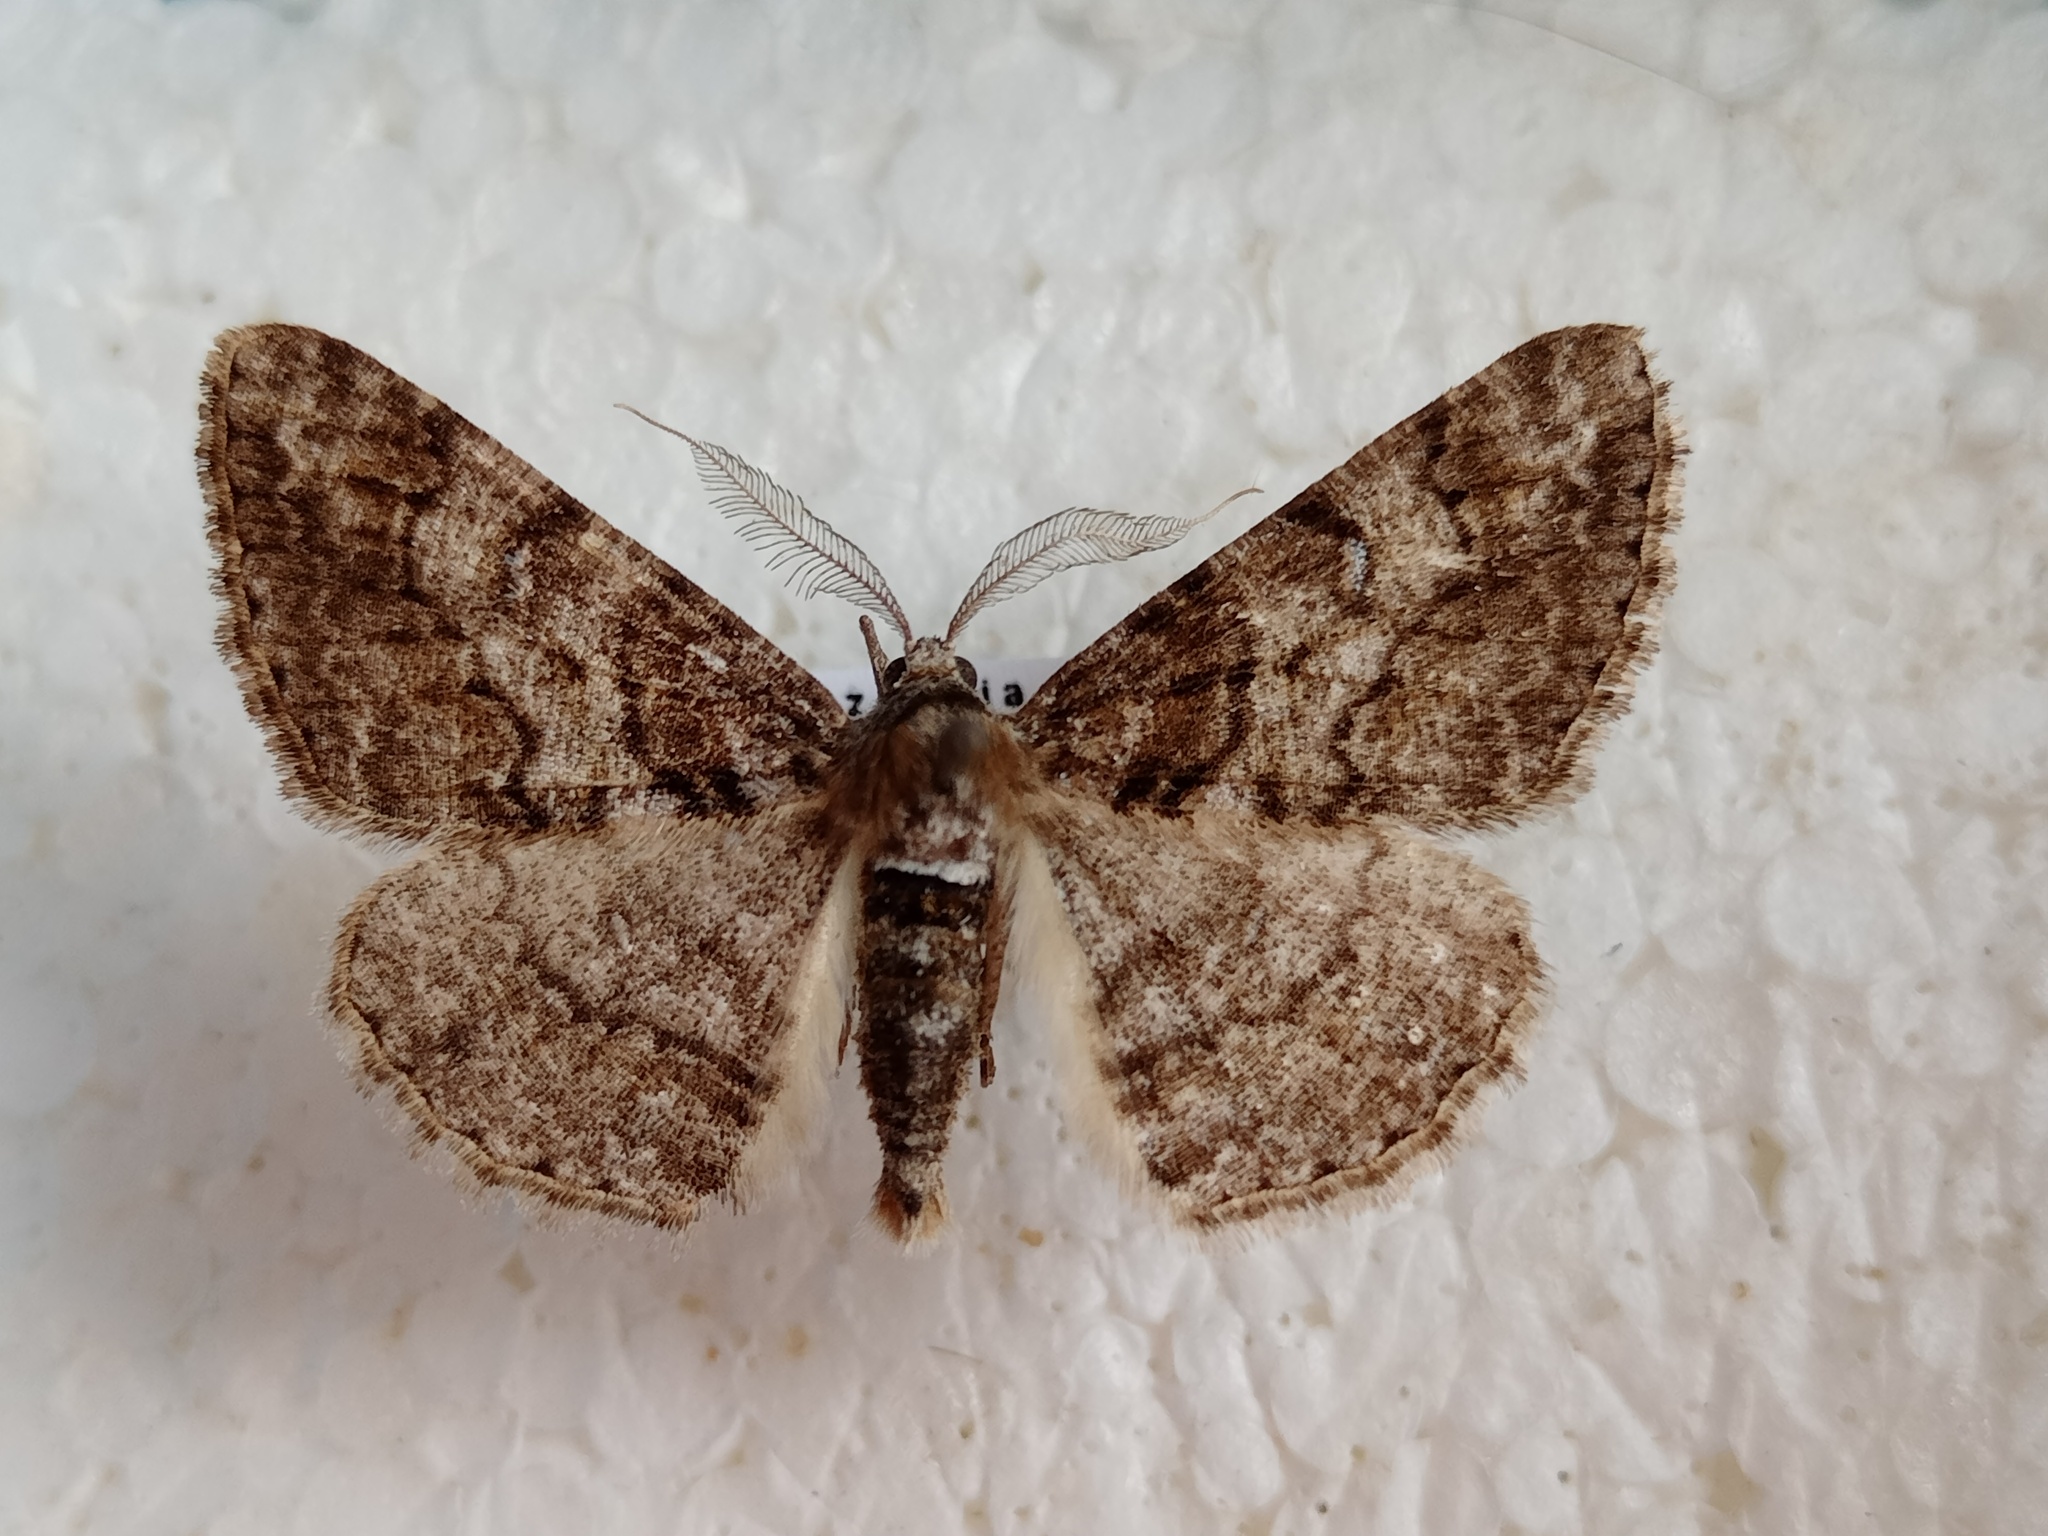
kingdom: Animalia
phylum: Arthropoda
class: Insecta
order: Lepidoptera
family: Geometridae
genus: Cleora
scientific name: Cleora cinctaria
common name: Ringed carpet
